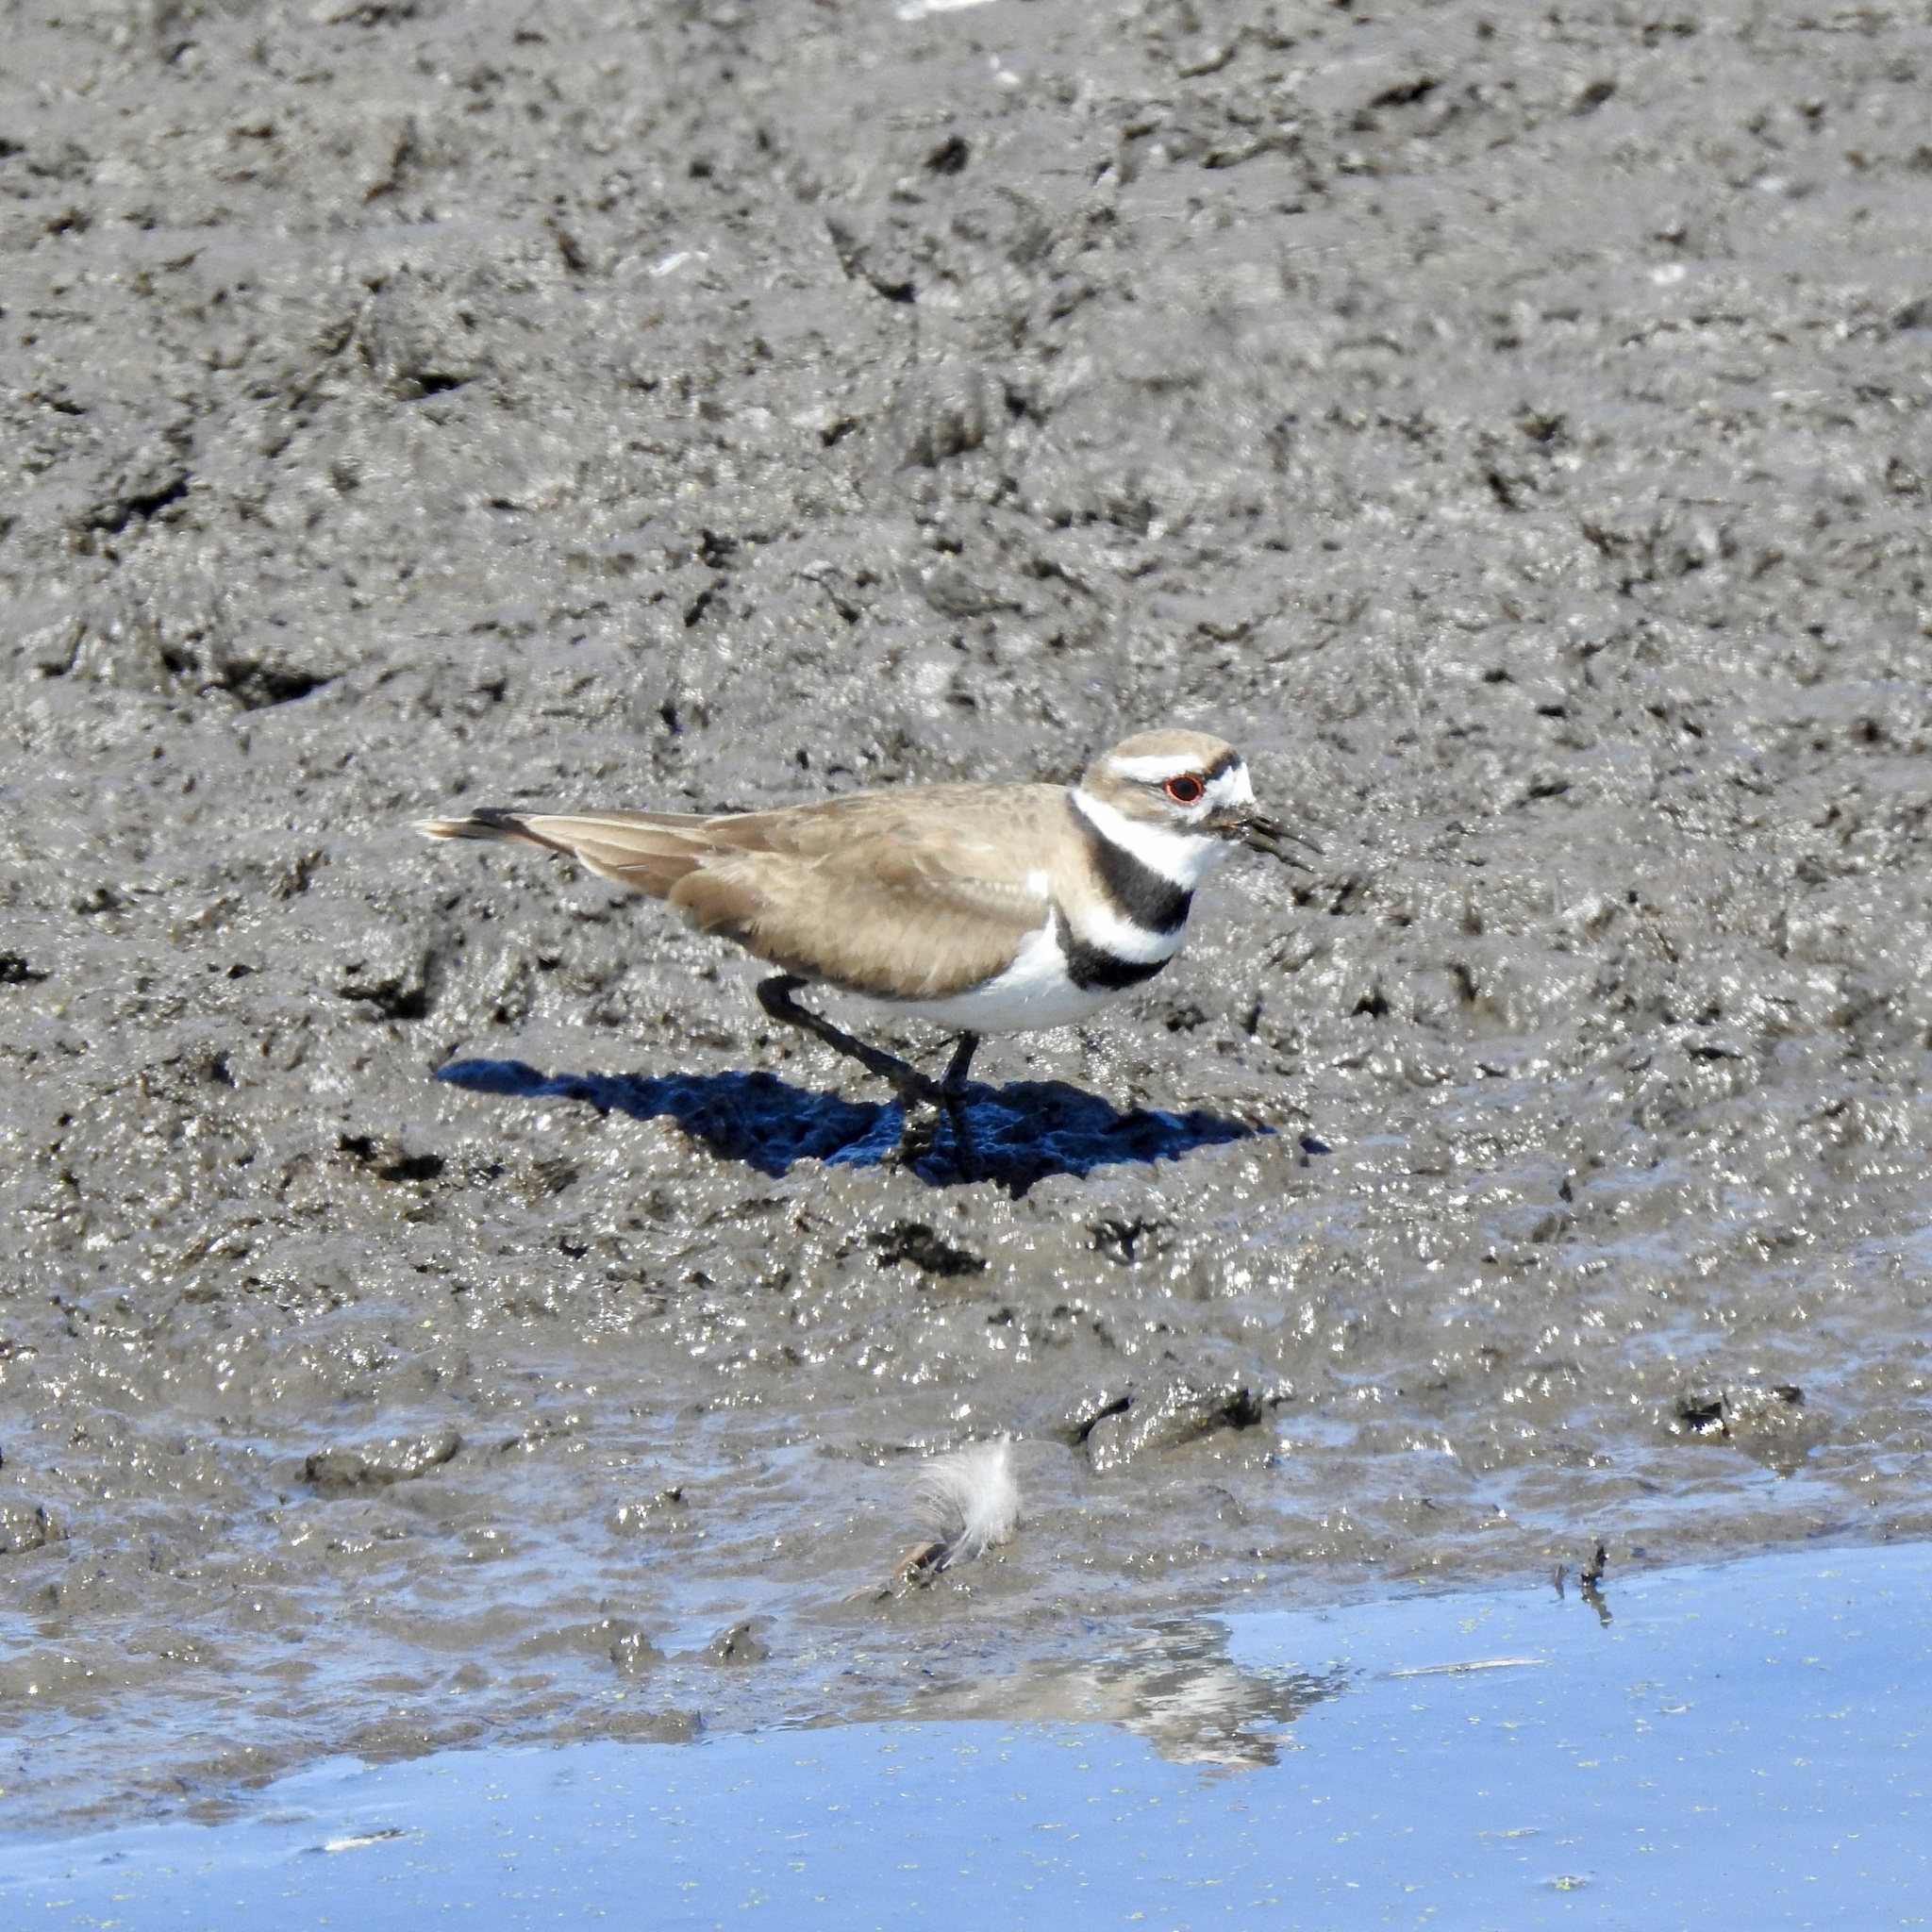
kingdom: Animalia
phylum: Chordata
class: Aves
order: Charadriiformes
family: Charadriidae
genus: Charadrius
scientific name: Charadrius vociferus
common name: Killdeer
